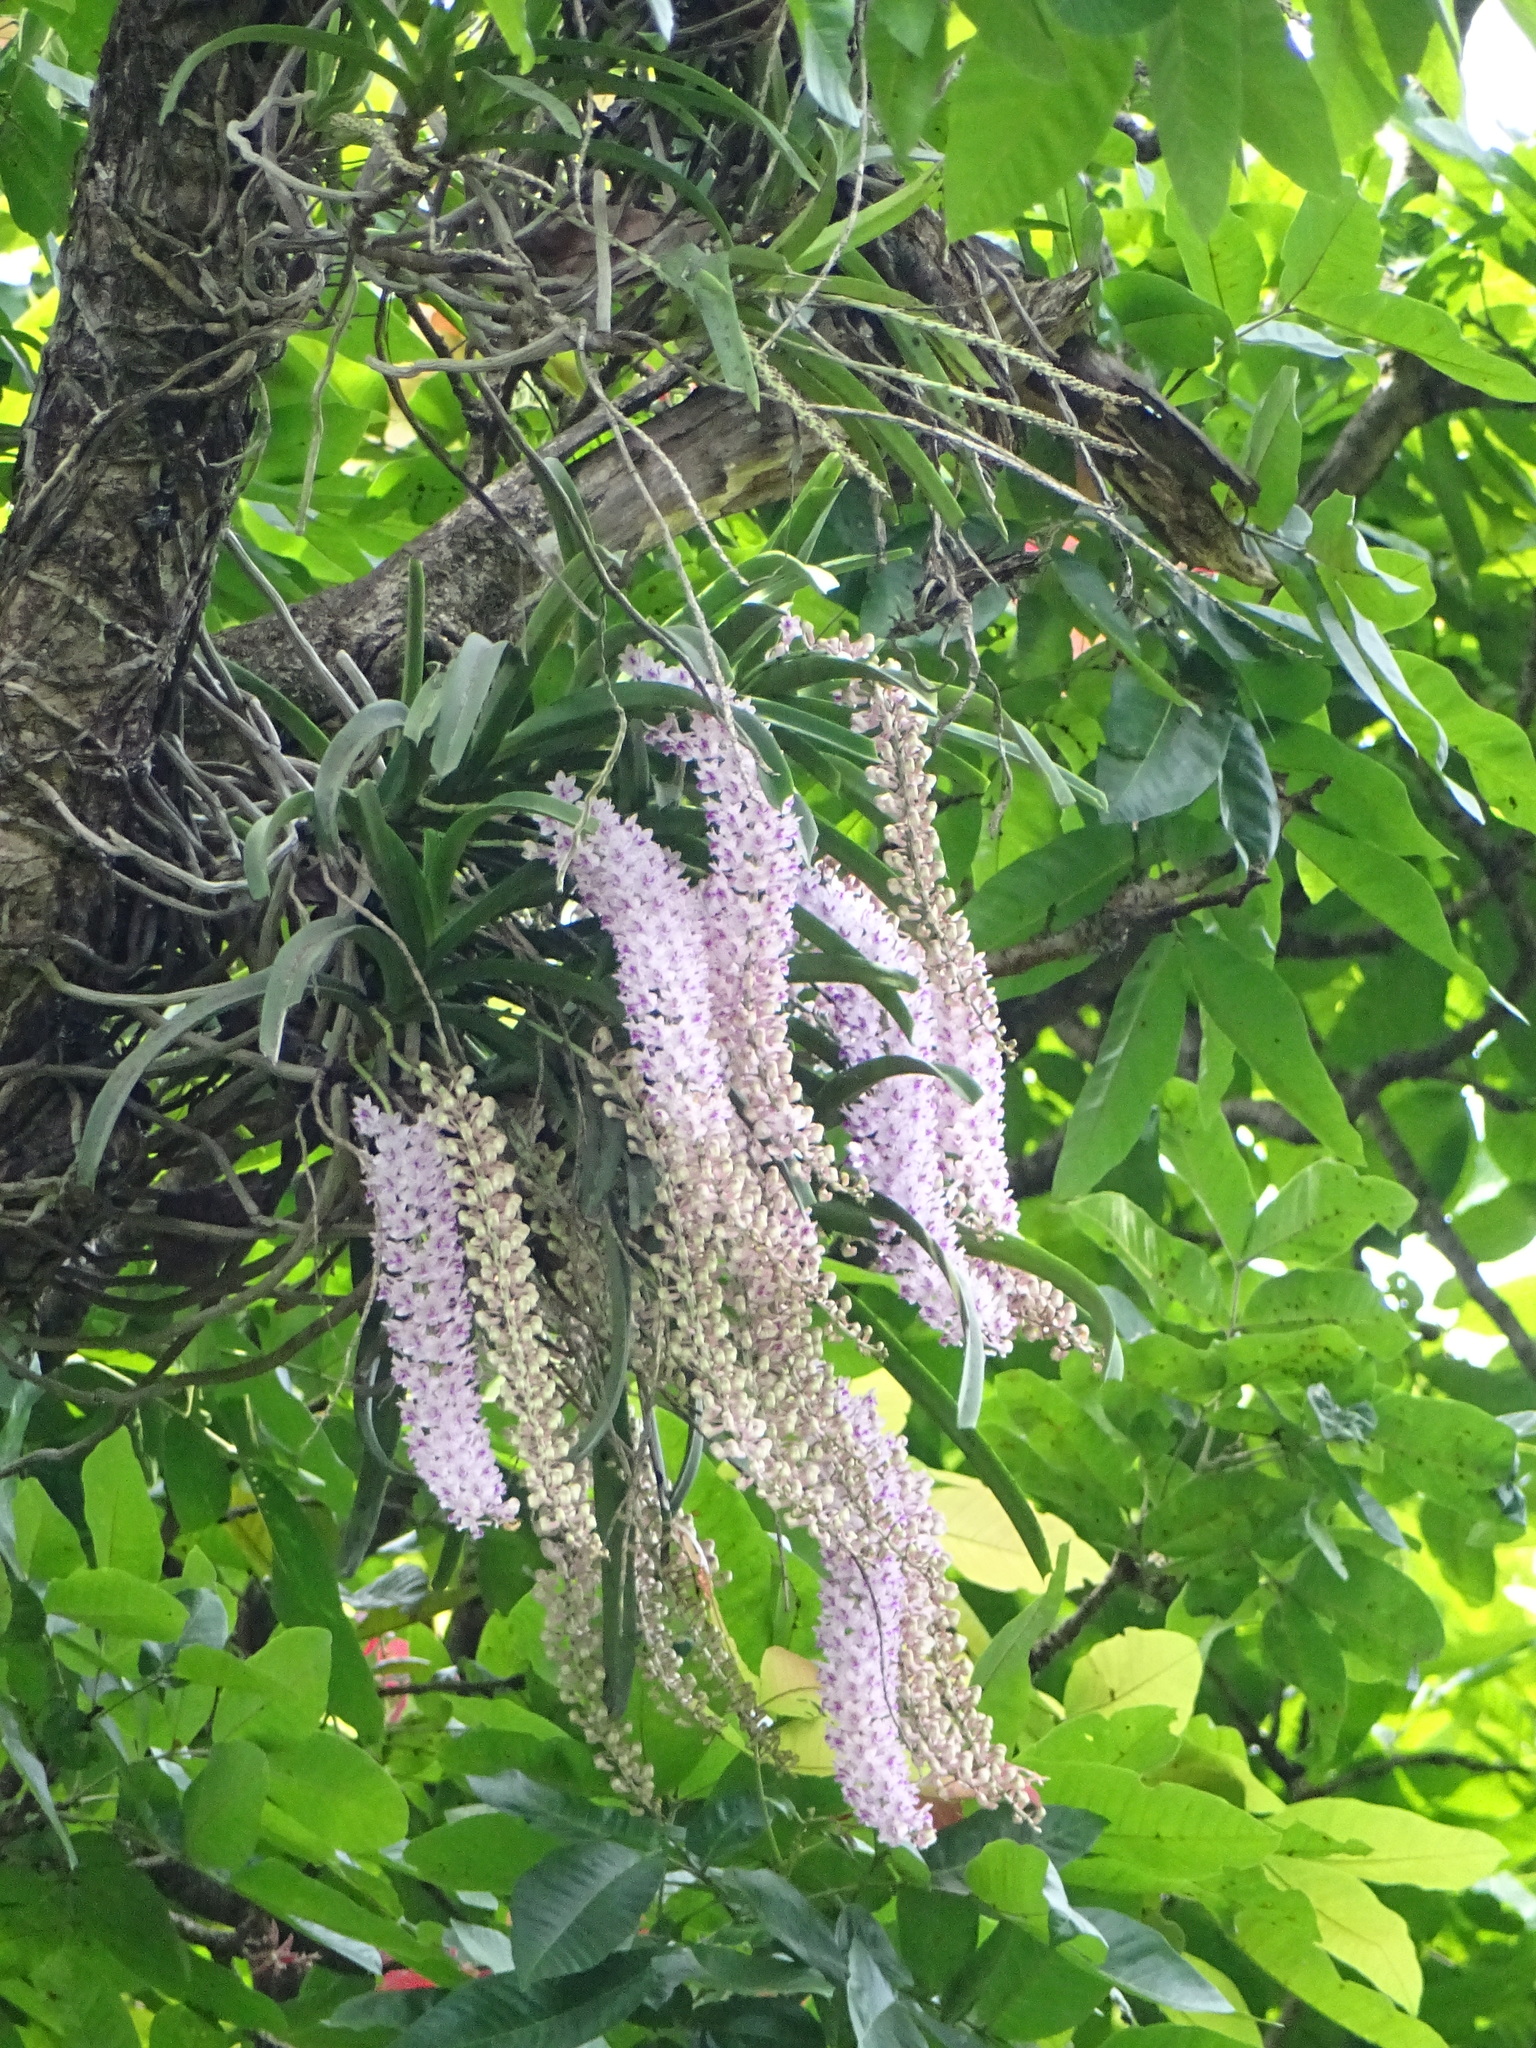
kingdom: Plantae
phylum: Tracheophyta
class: Liliopsida
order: Asparagales
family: Orchidaceae
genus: Rhynchostylis
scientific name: Rhynchostylis retusa
